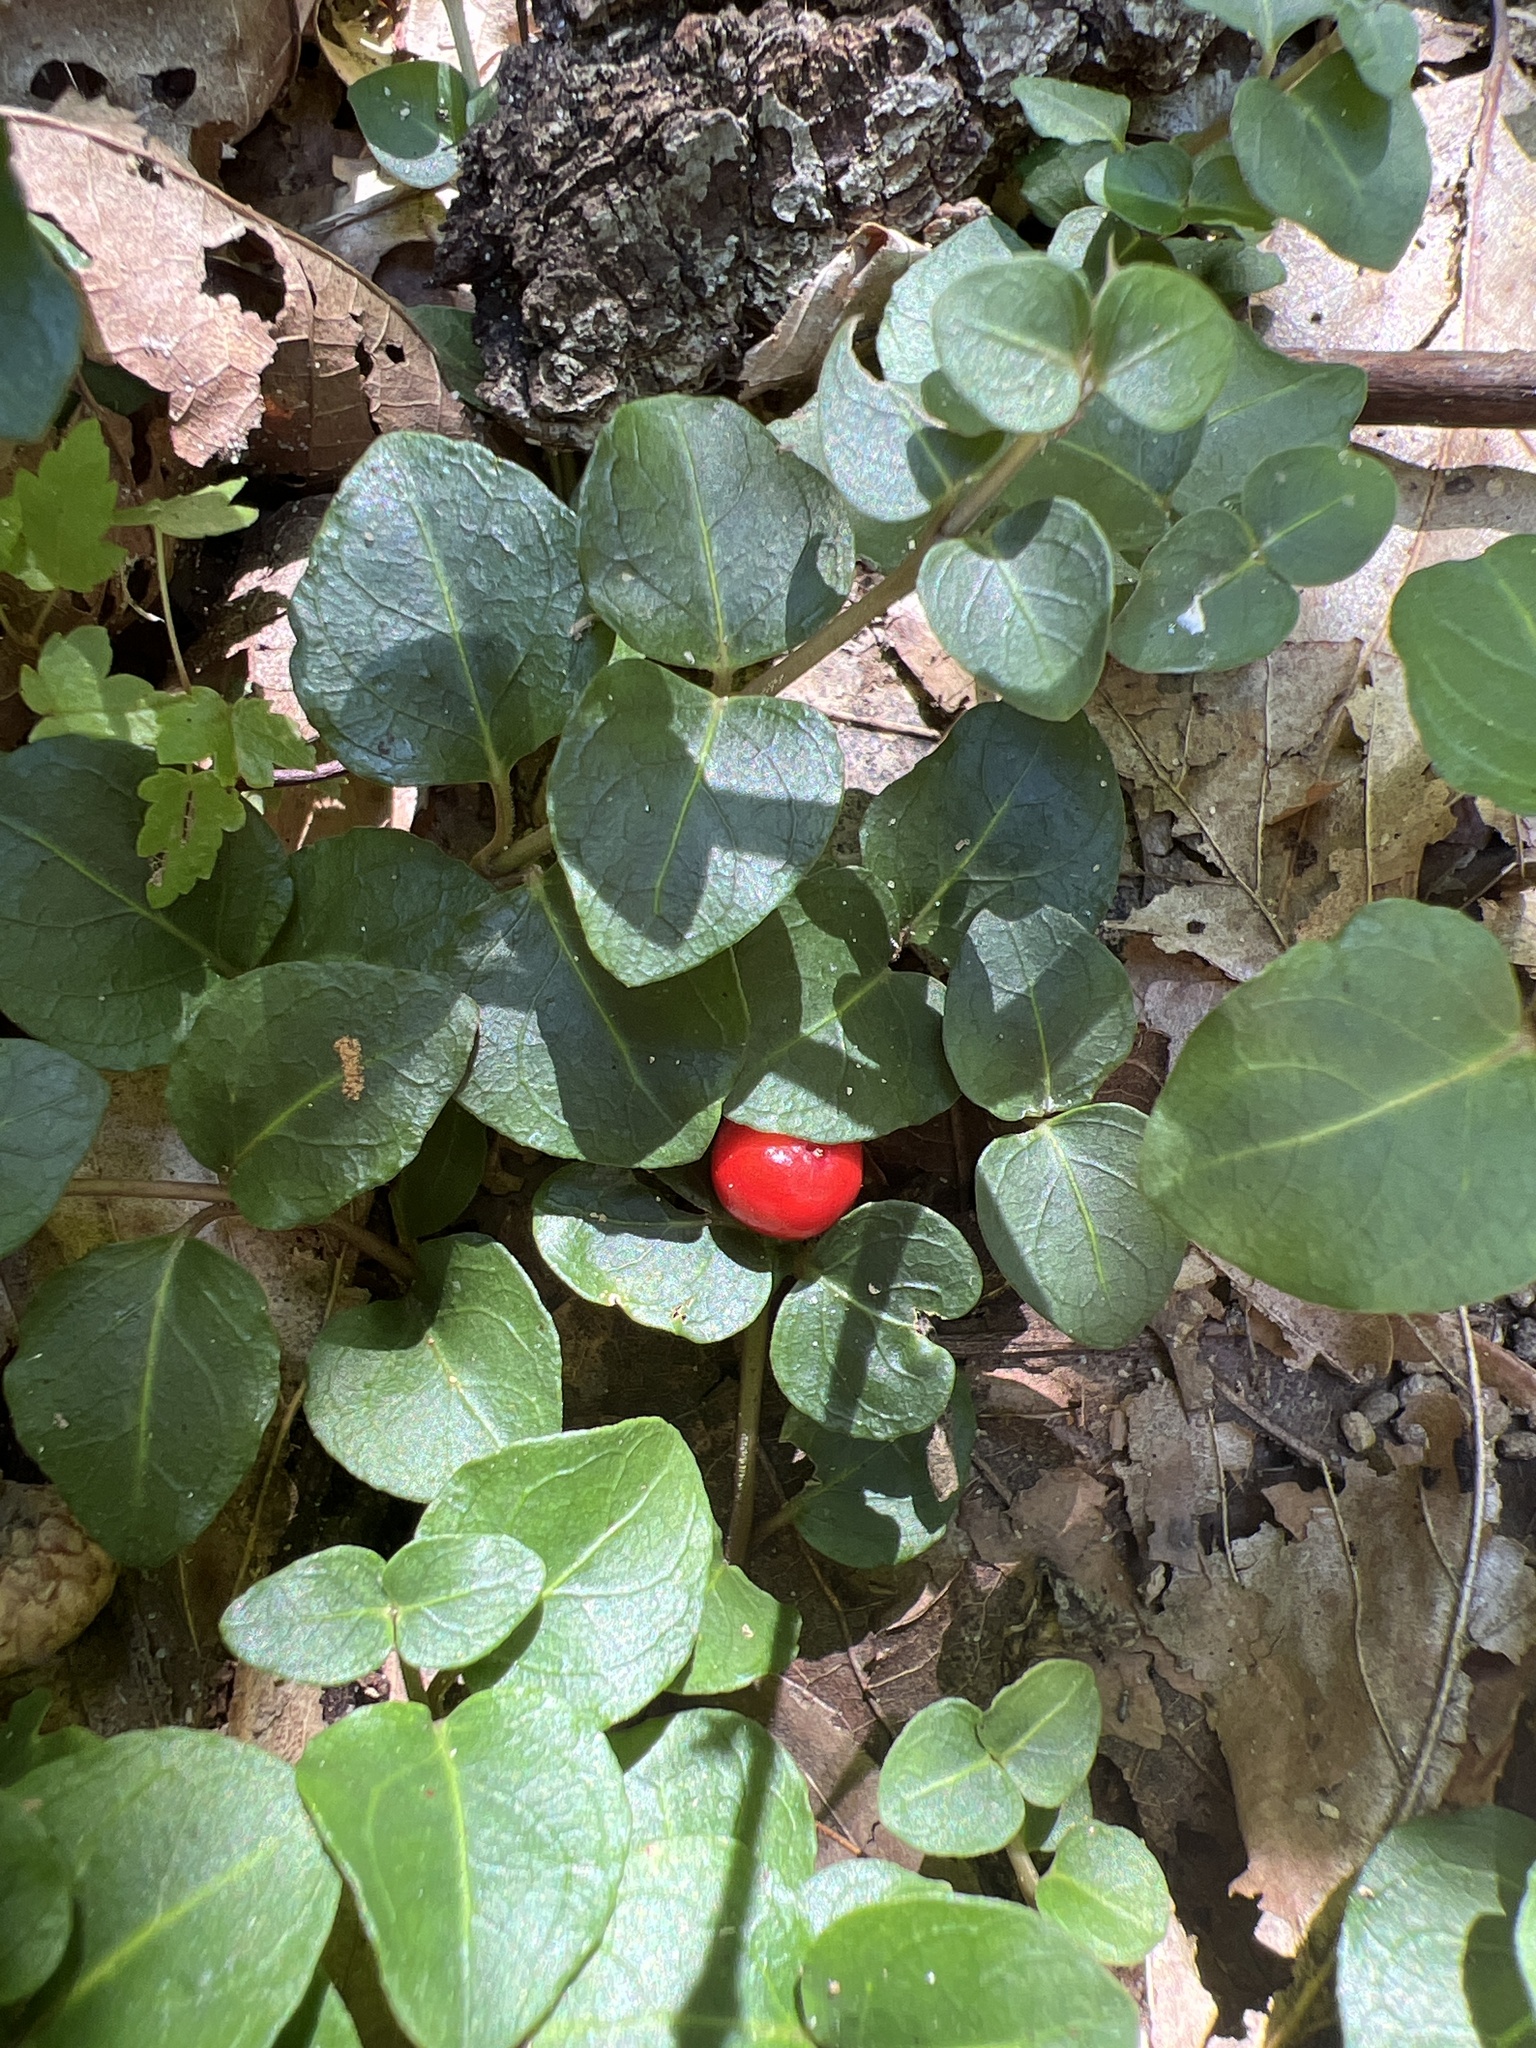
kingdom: Plantae
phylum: Tracheophyta
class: Magnoliopsida
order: Gentianales
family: Rubiaceae
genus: Mitchella
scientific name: Mitchella repens
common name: Partridge-berry
